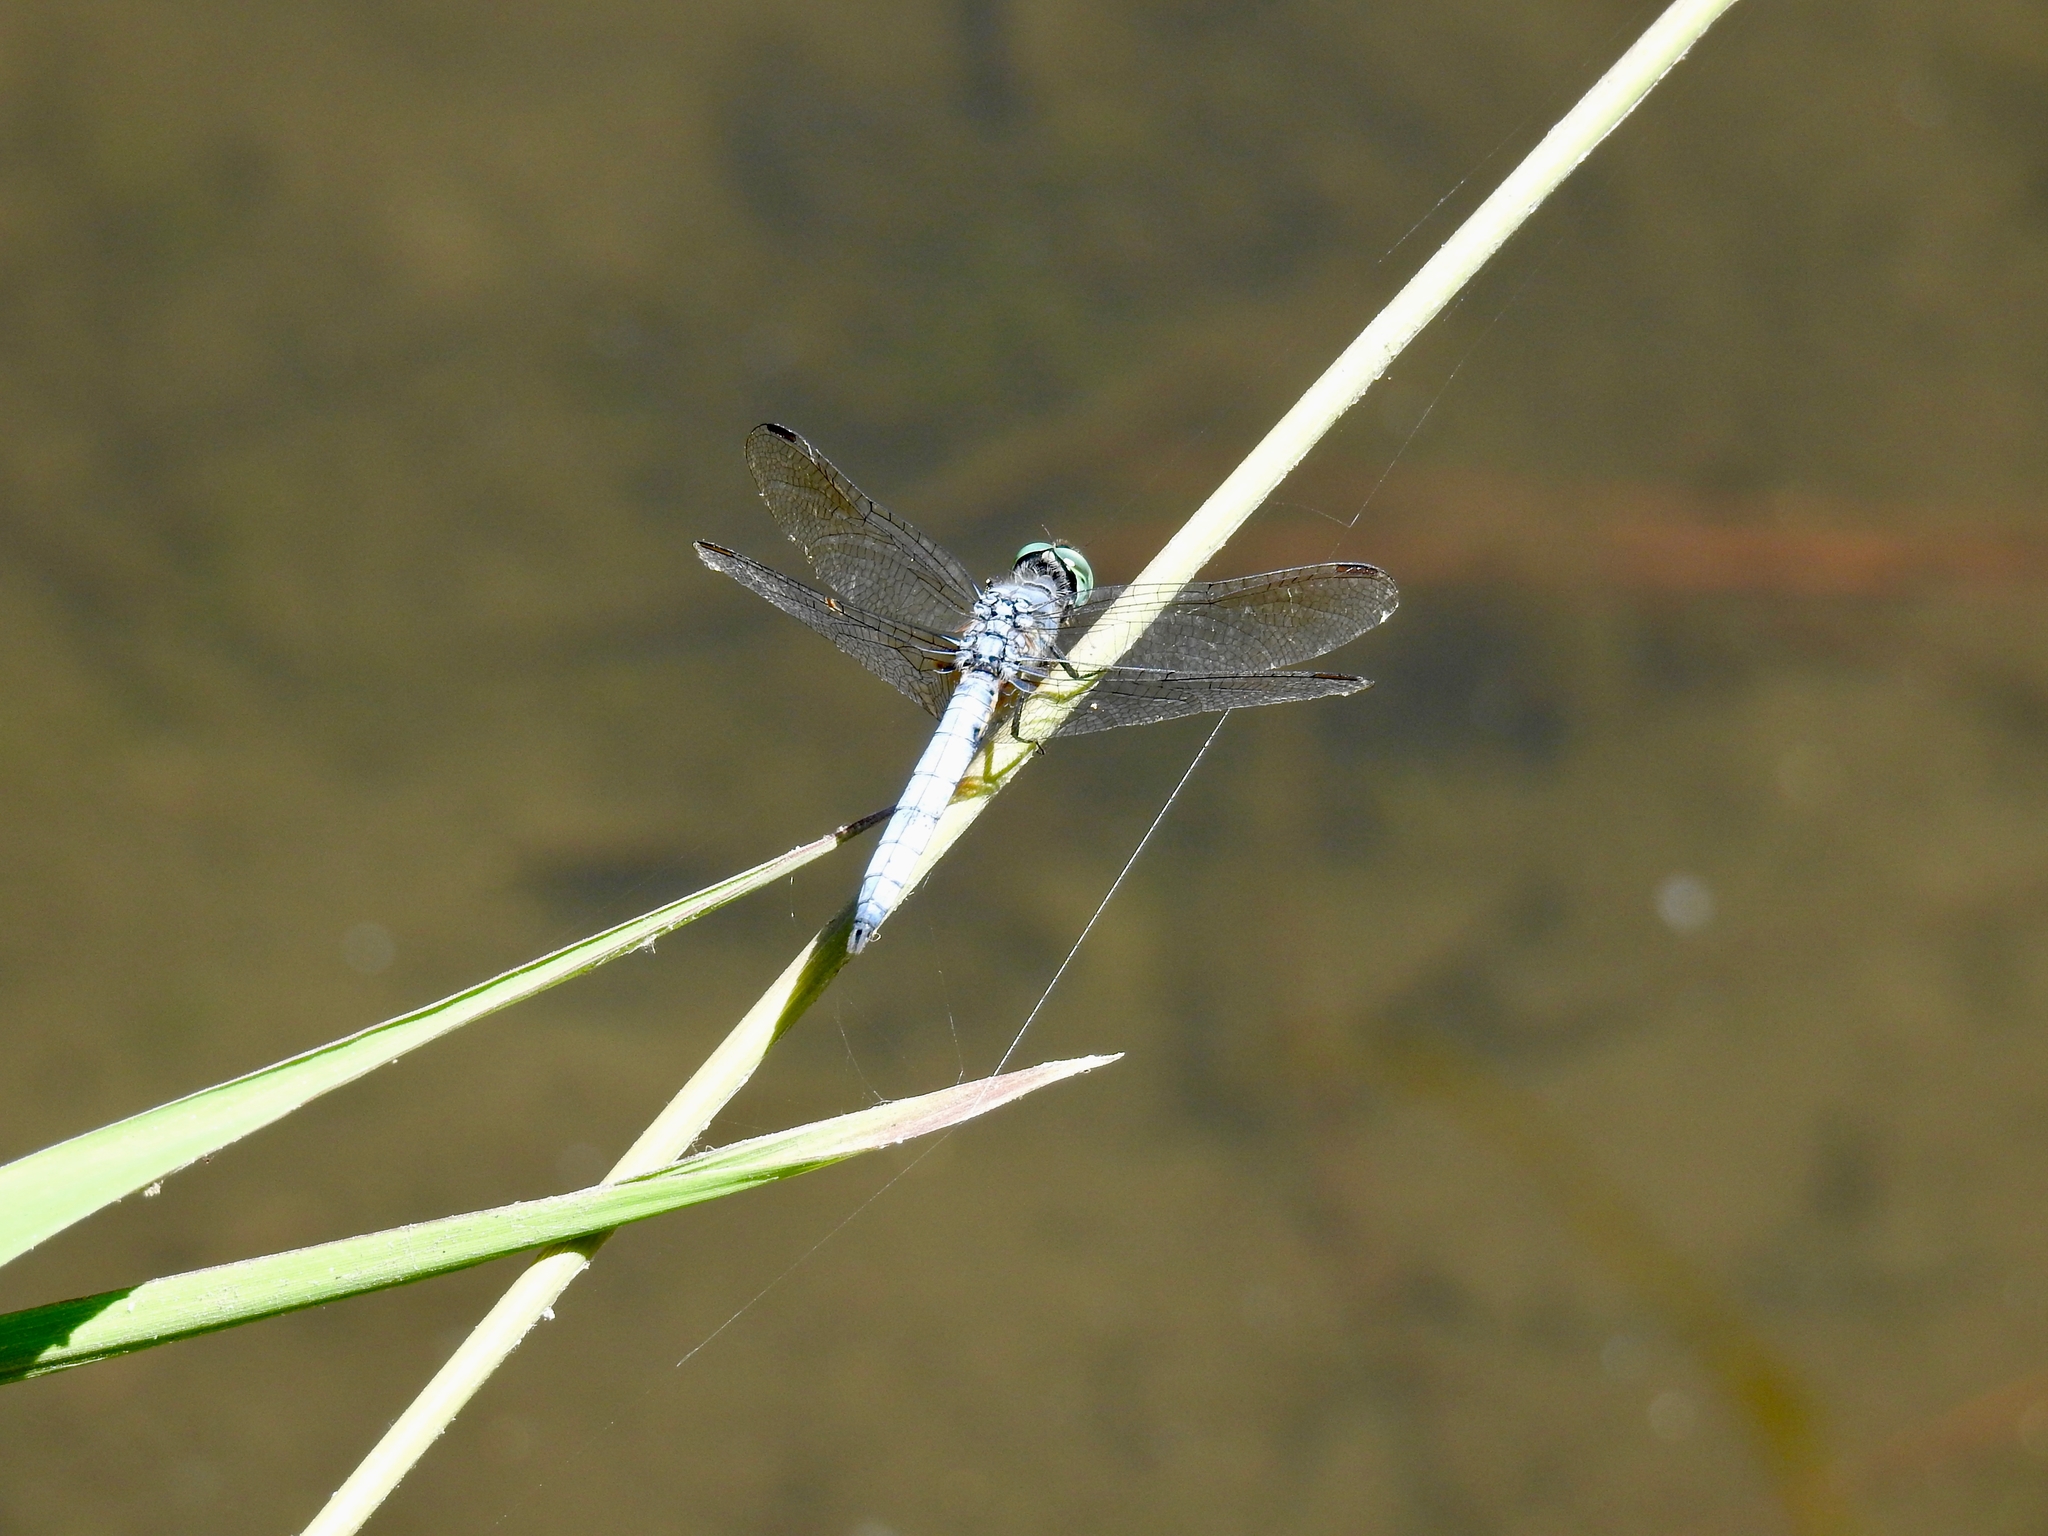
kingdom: Animalia
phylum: Arthropoda
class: Insecta
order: Odonata
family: Libellulidae
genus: Pachydiplax
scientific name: Pachydiplax longipennis
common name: Blue dasher
